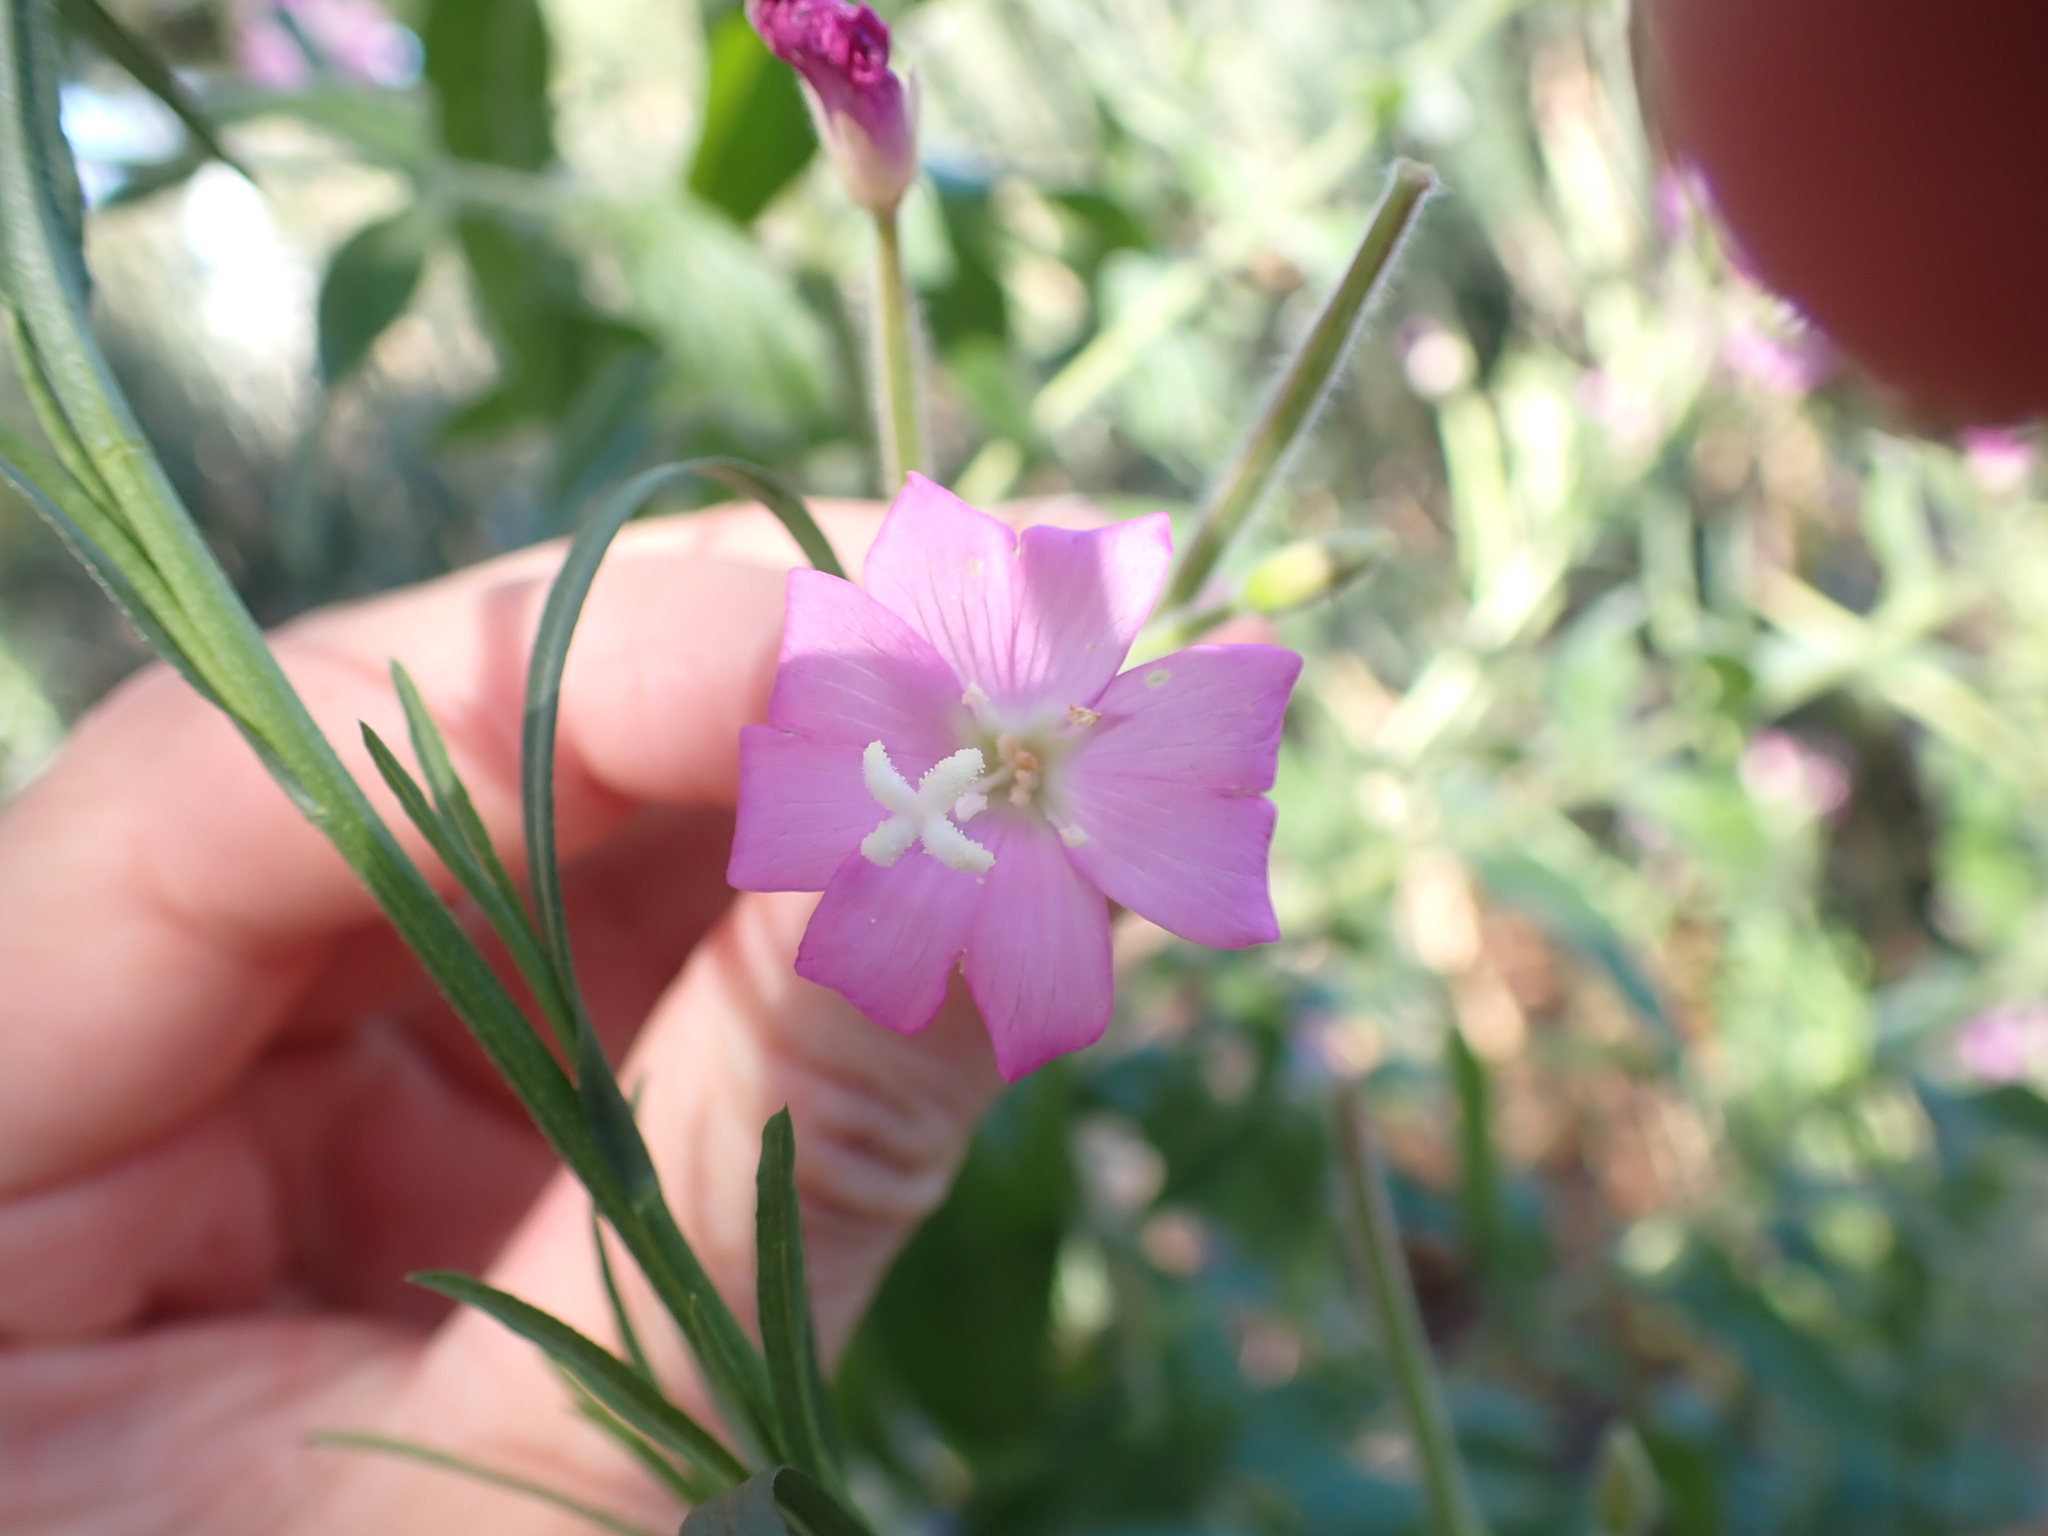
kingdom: Plantae
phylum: Tracheophyta
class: Magnoliopsida
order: Myrtales
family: Onagraceae
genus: Epilobium
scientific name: Epilobium hirsutum
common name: Great willowherb
